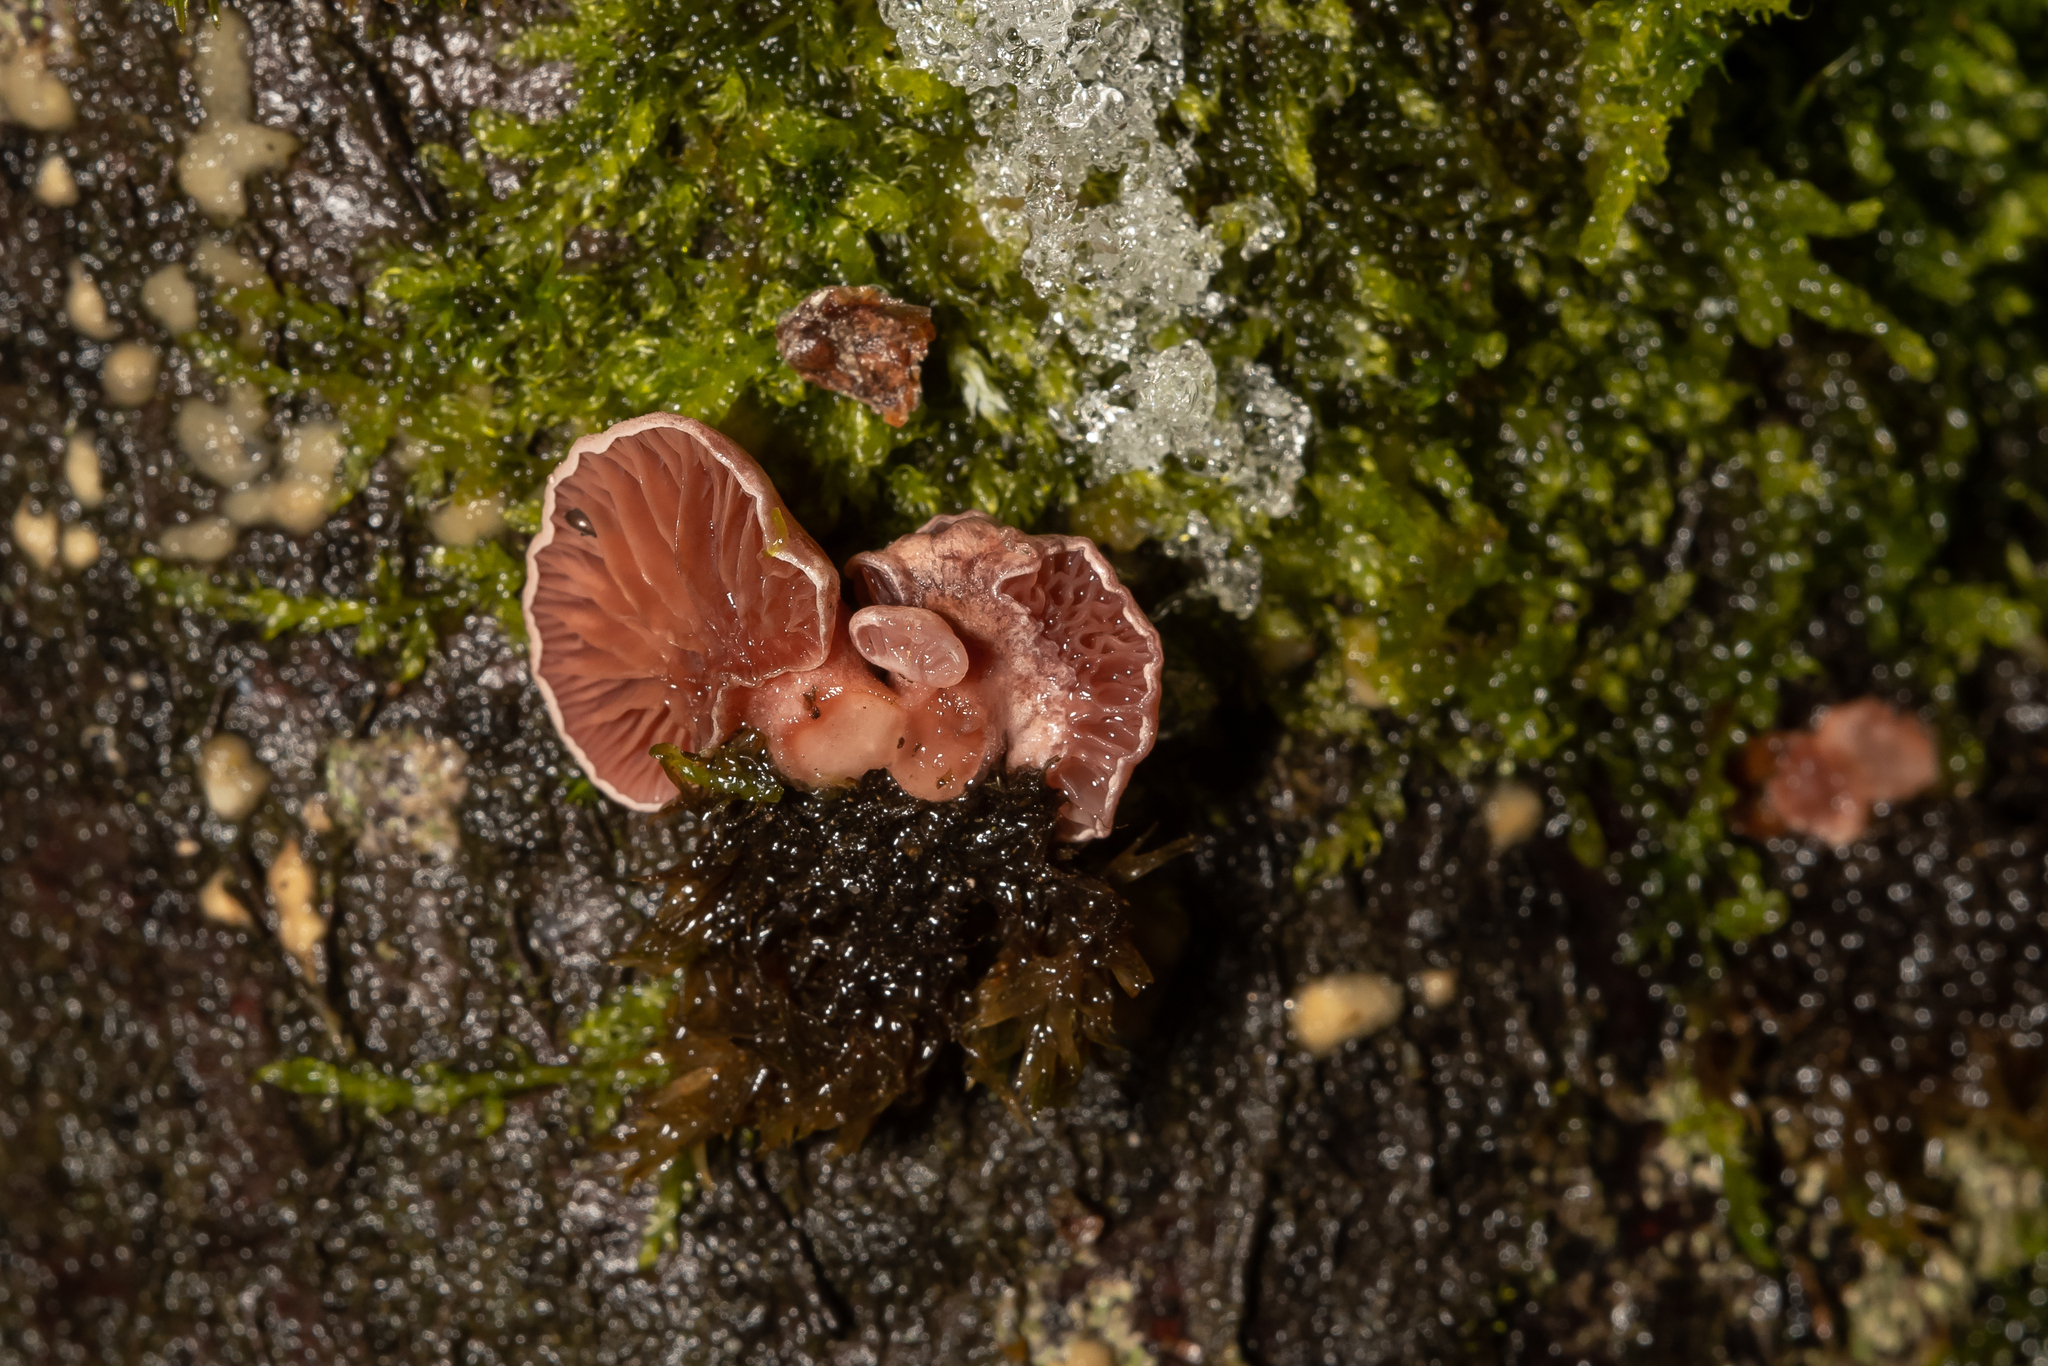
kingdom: Fungi
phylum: Basidiomycota
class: Agaricomycetes
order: Agaricales
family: Mycenaceae
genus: Panellus
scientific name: Panellus ringens
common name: Winter oysterling
